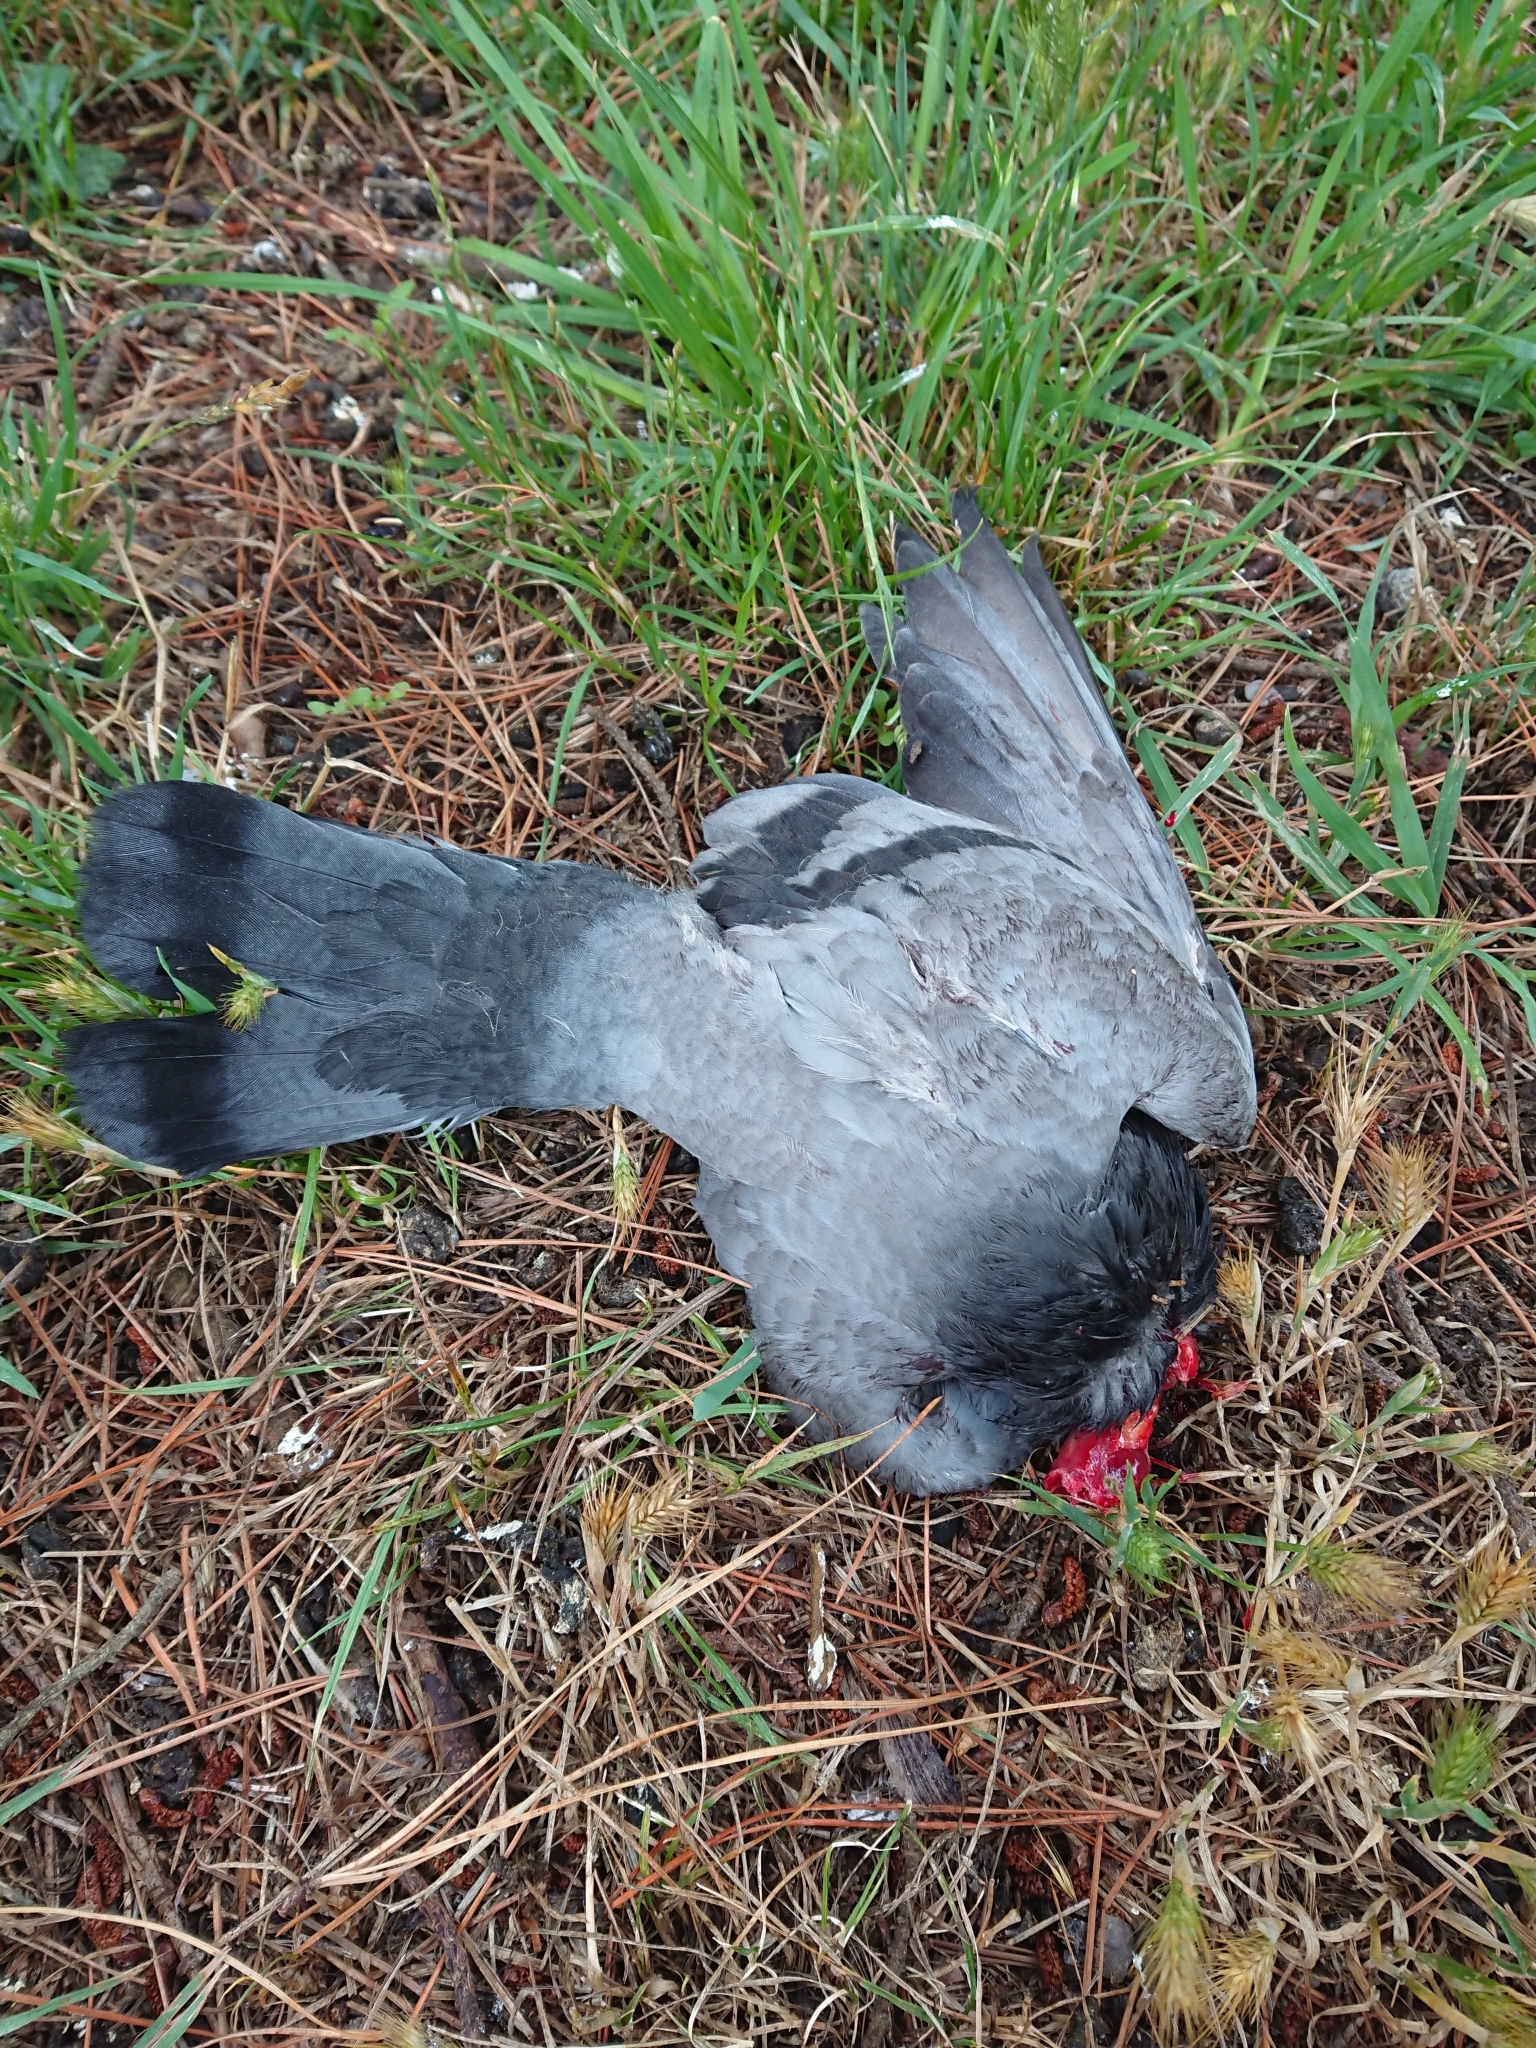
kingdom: Animalia
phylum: Chordata
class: Aves
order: Columbiformes
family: Columbidae
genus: Columba
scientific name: Columba livia
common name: Rock pigeon
